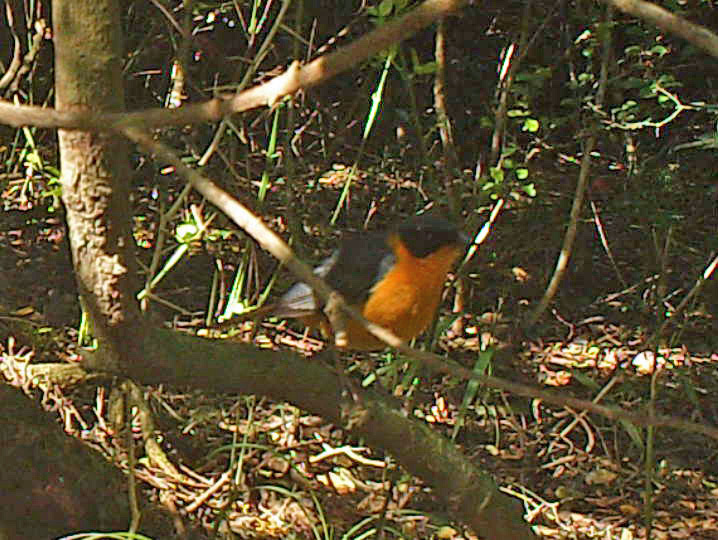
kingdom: Animalia
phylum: Chordata
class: Aves
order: Passeriformes
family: Muscicapidae
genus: Cossypha
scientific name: Cossypha dichroa
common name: Chorister robin-chat
